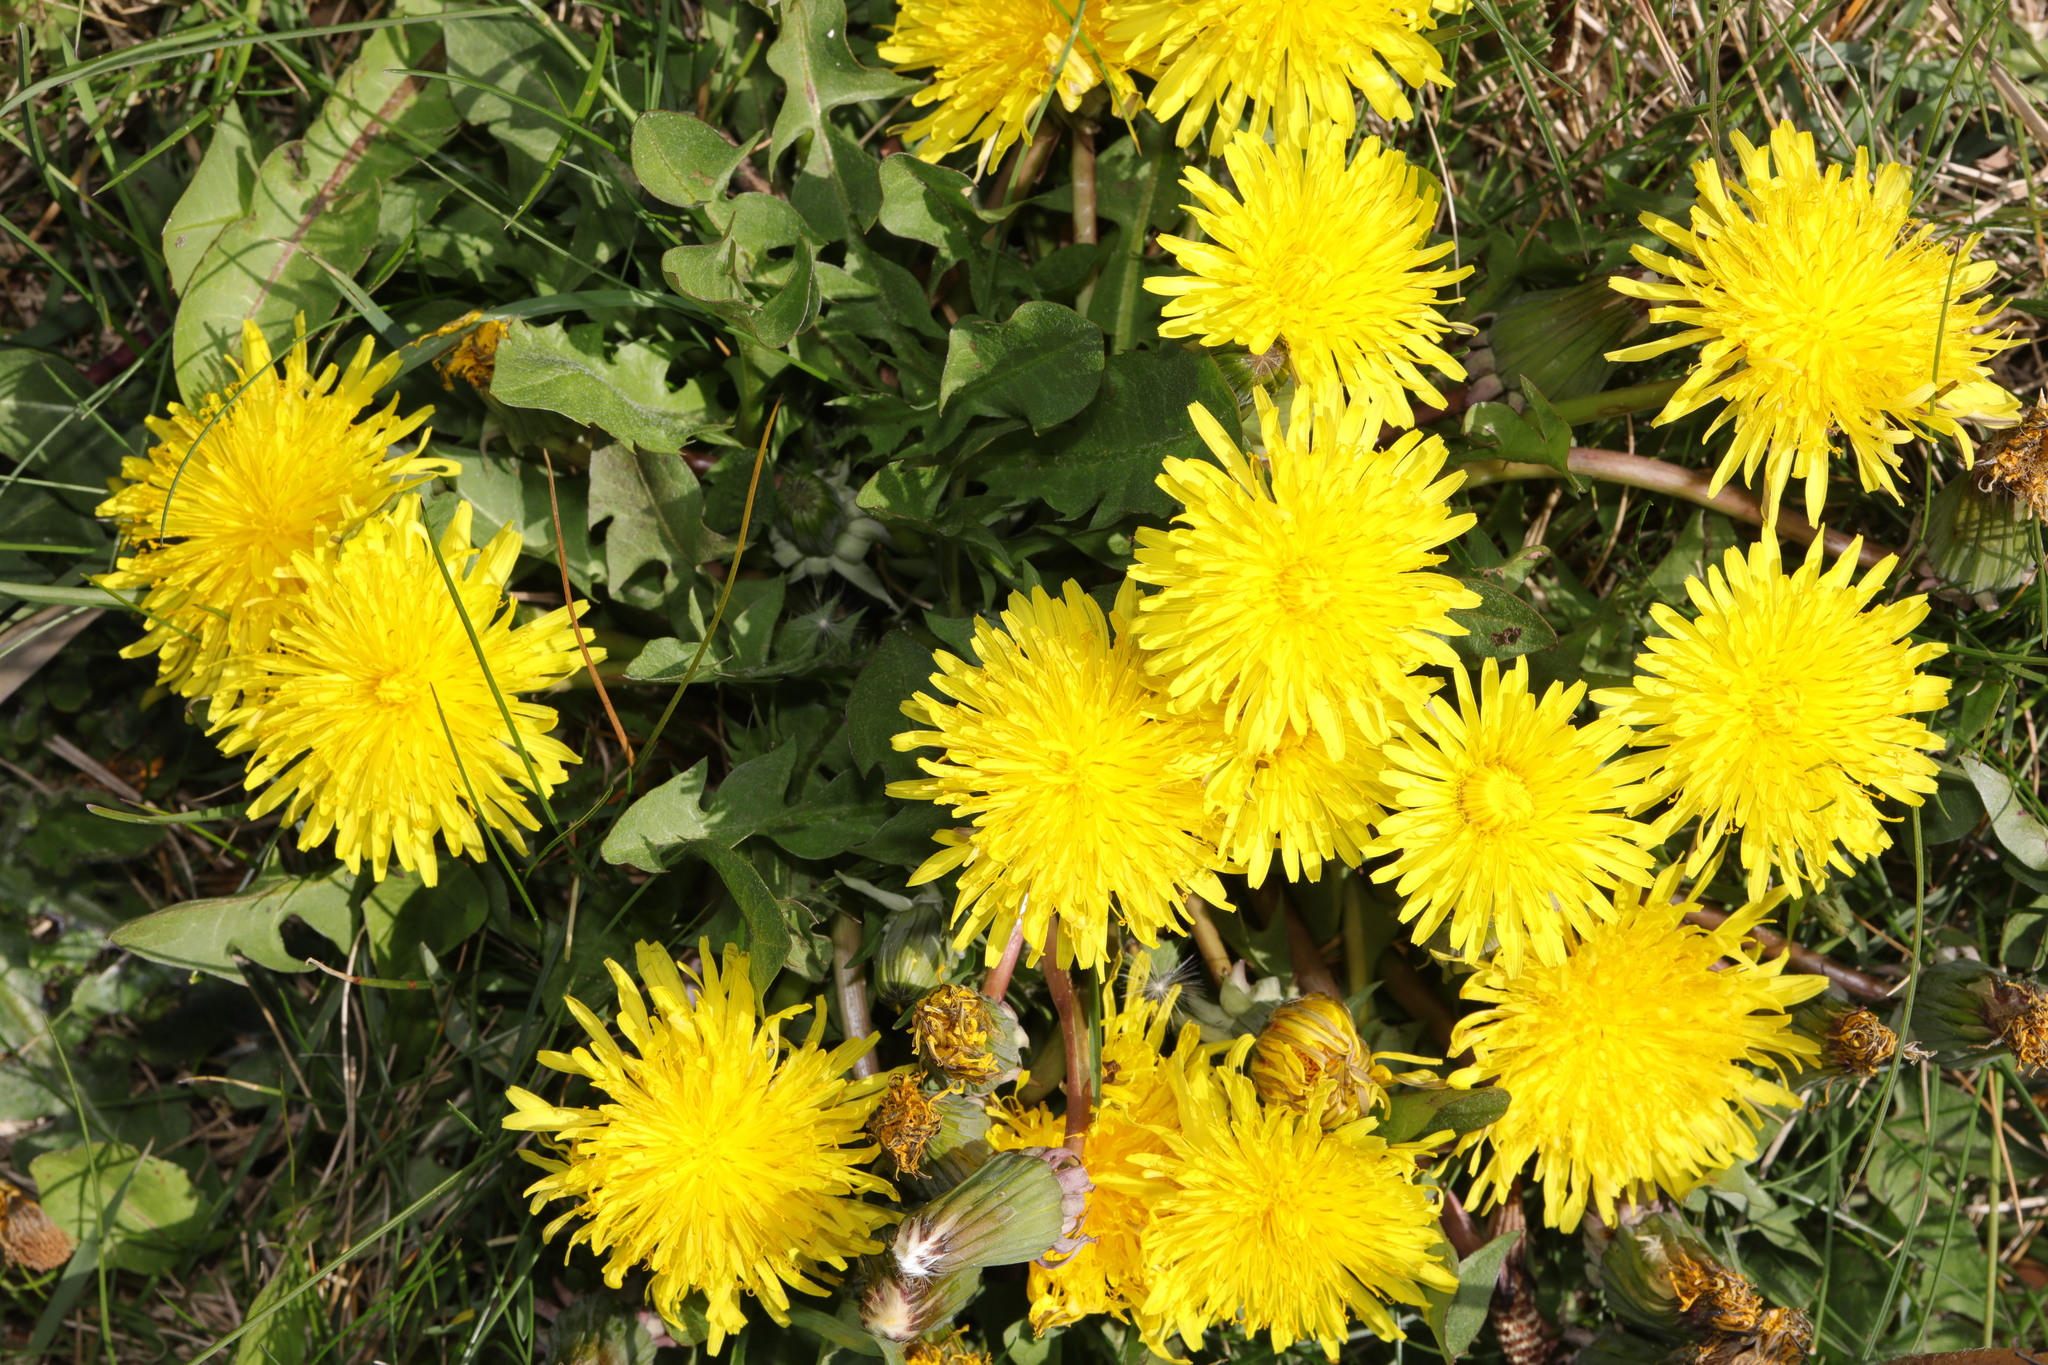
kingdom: Plantae
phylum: Tracheophyta
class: Magnoliopsida
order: Asterales
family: Asteraceae
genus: Taraxacum
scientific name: Taraxacum officinale
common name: Common dandelion
